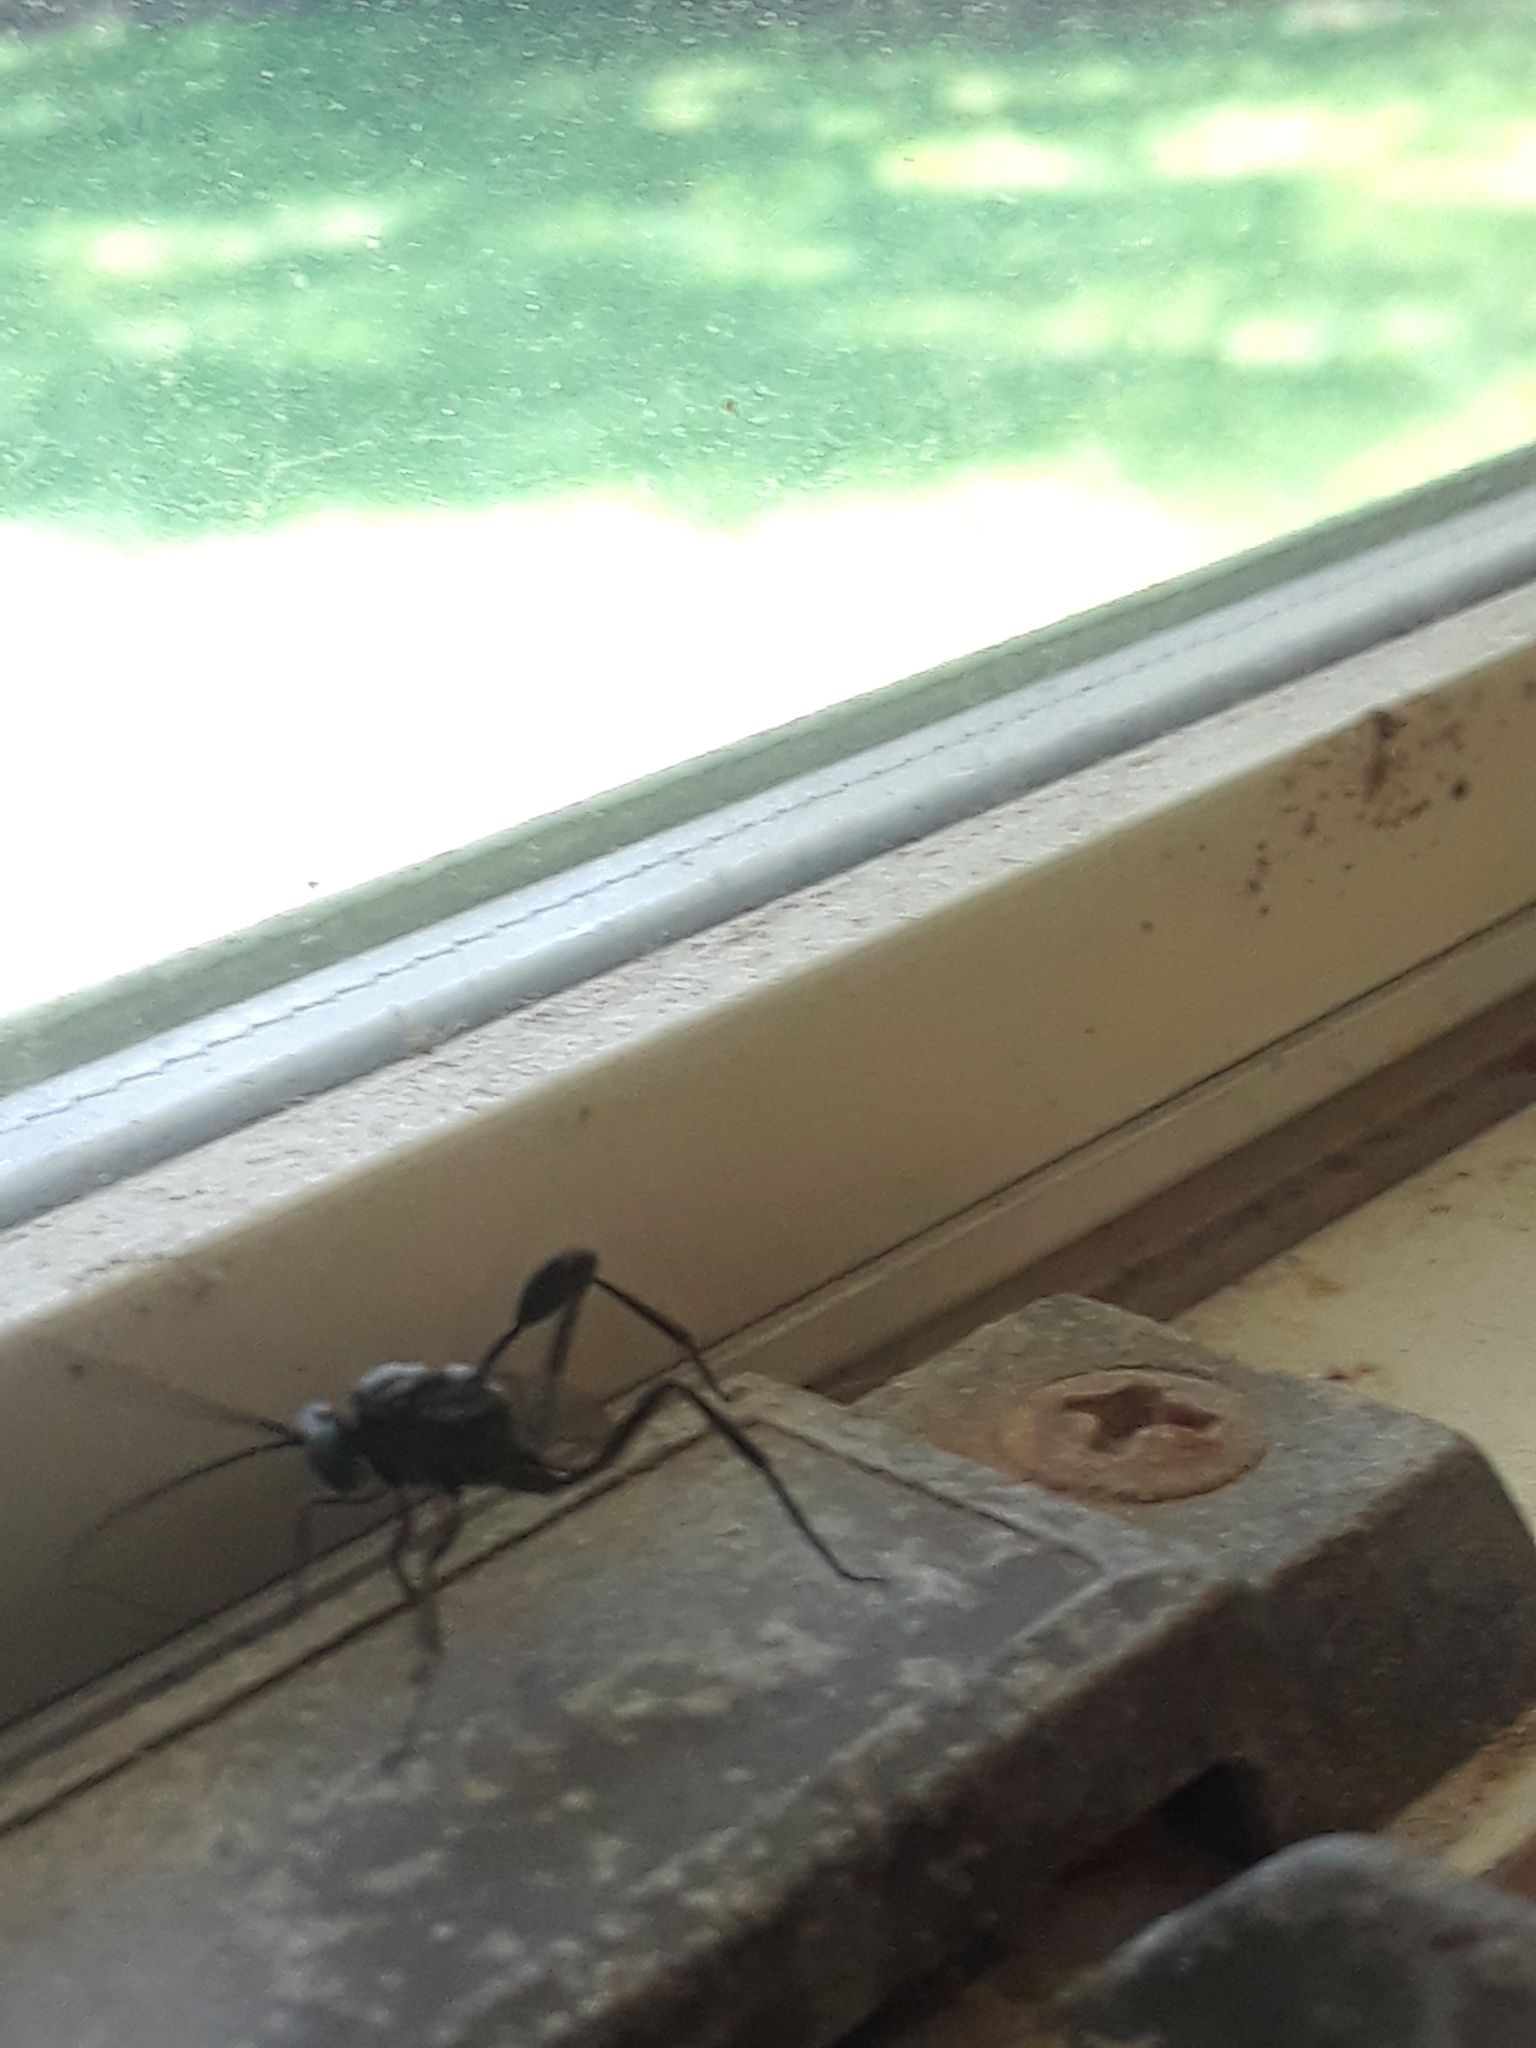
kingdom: Animalia
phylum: Arthropoda
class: Insecta
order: Hymenoptera
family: Evaniidae
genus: Evania
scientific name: Evania appendigaster
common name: Ensign wasp
